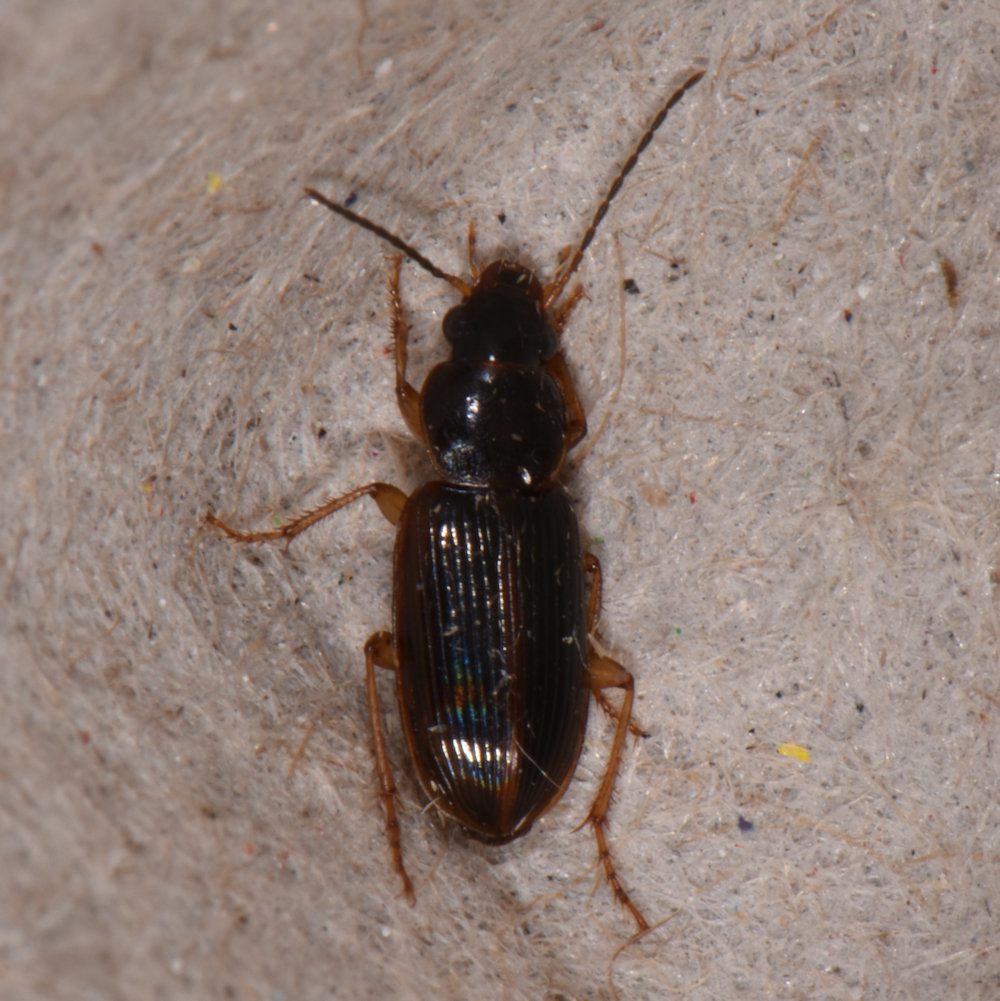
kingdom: Animalia
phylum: Arthropoda
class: Insecta
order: Coleoptera
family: Carabidae
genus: Stenolophus
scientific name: Stenolophus ochropezus
